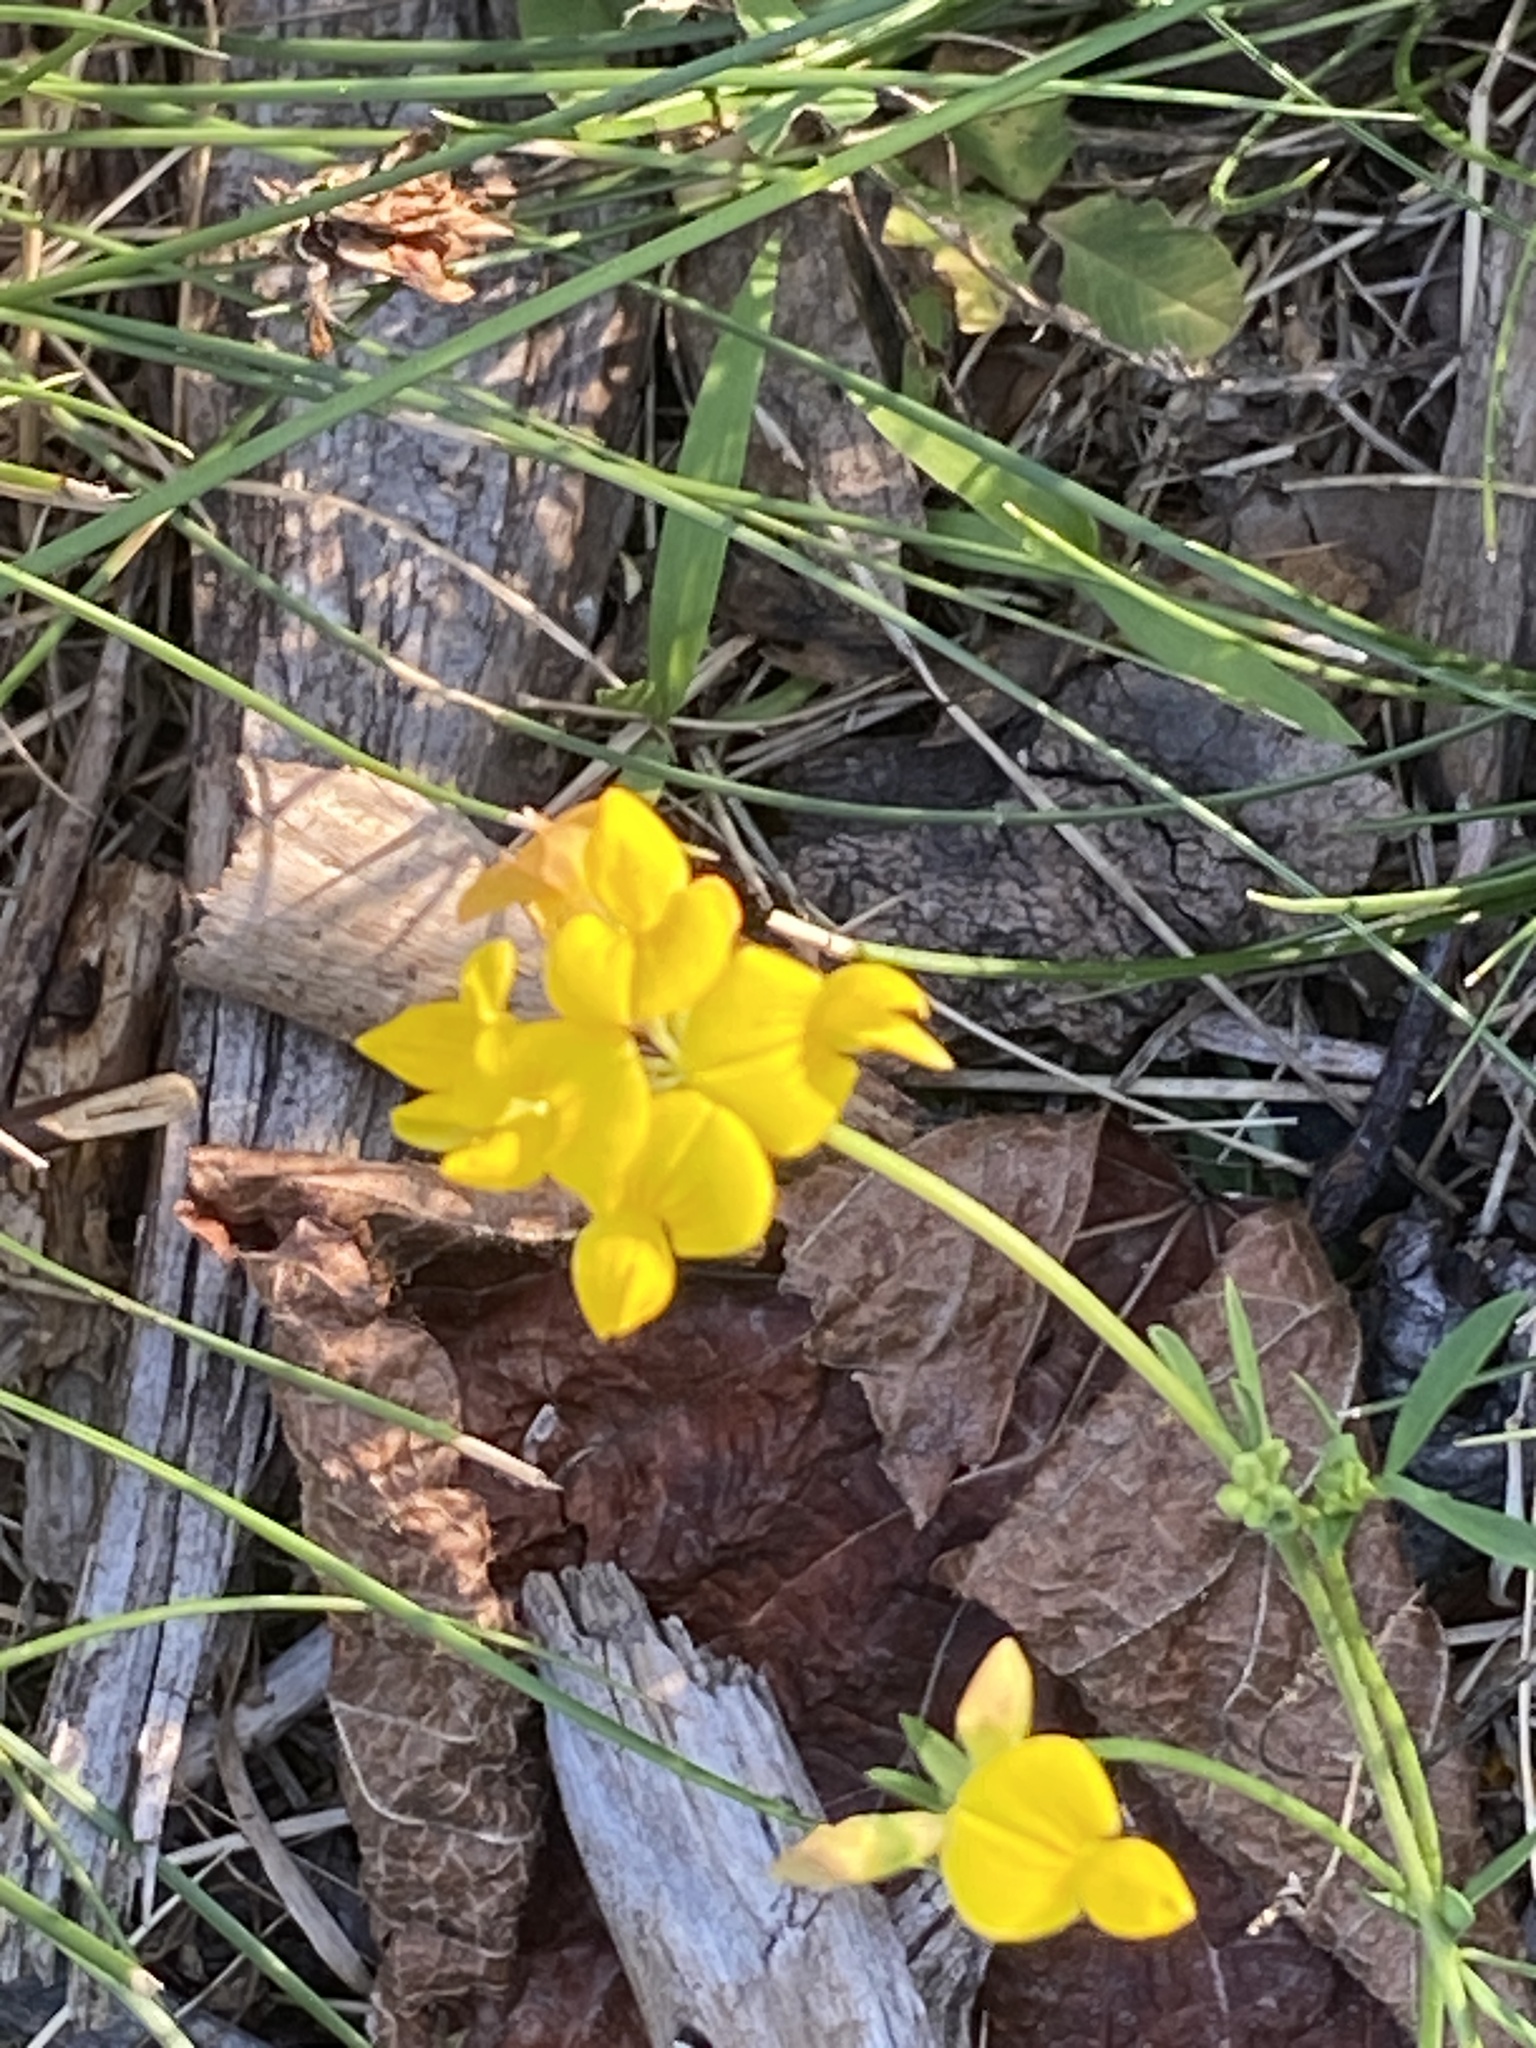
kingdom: Plantae
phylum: Tracheophyta
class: Magnoliopsida
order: Fabales
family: Fabaceae
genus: Lotus
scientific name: Lotus tenuis
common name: Narrow-leaved bird's-foot-trefoil
